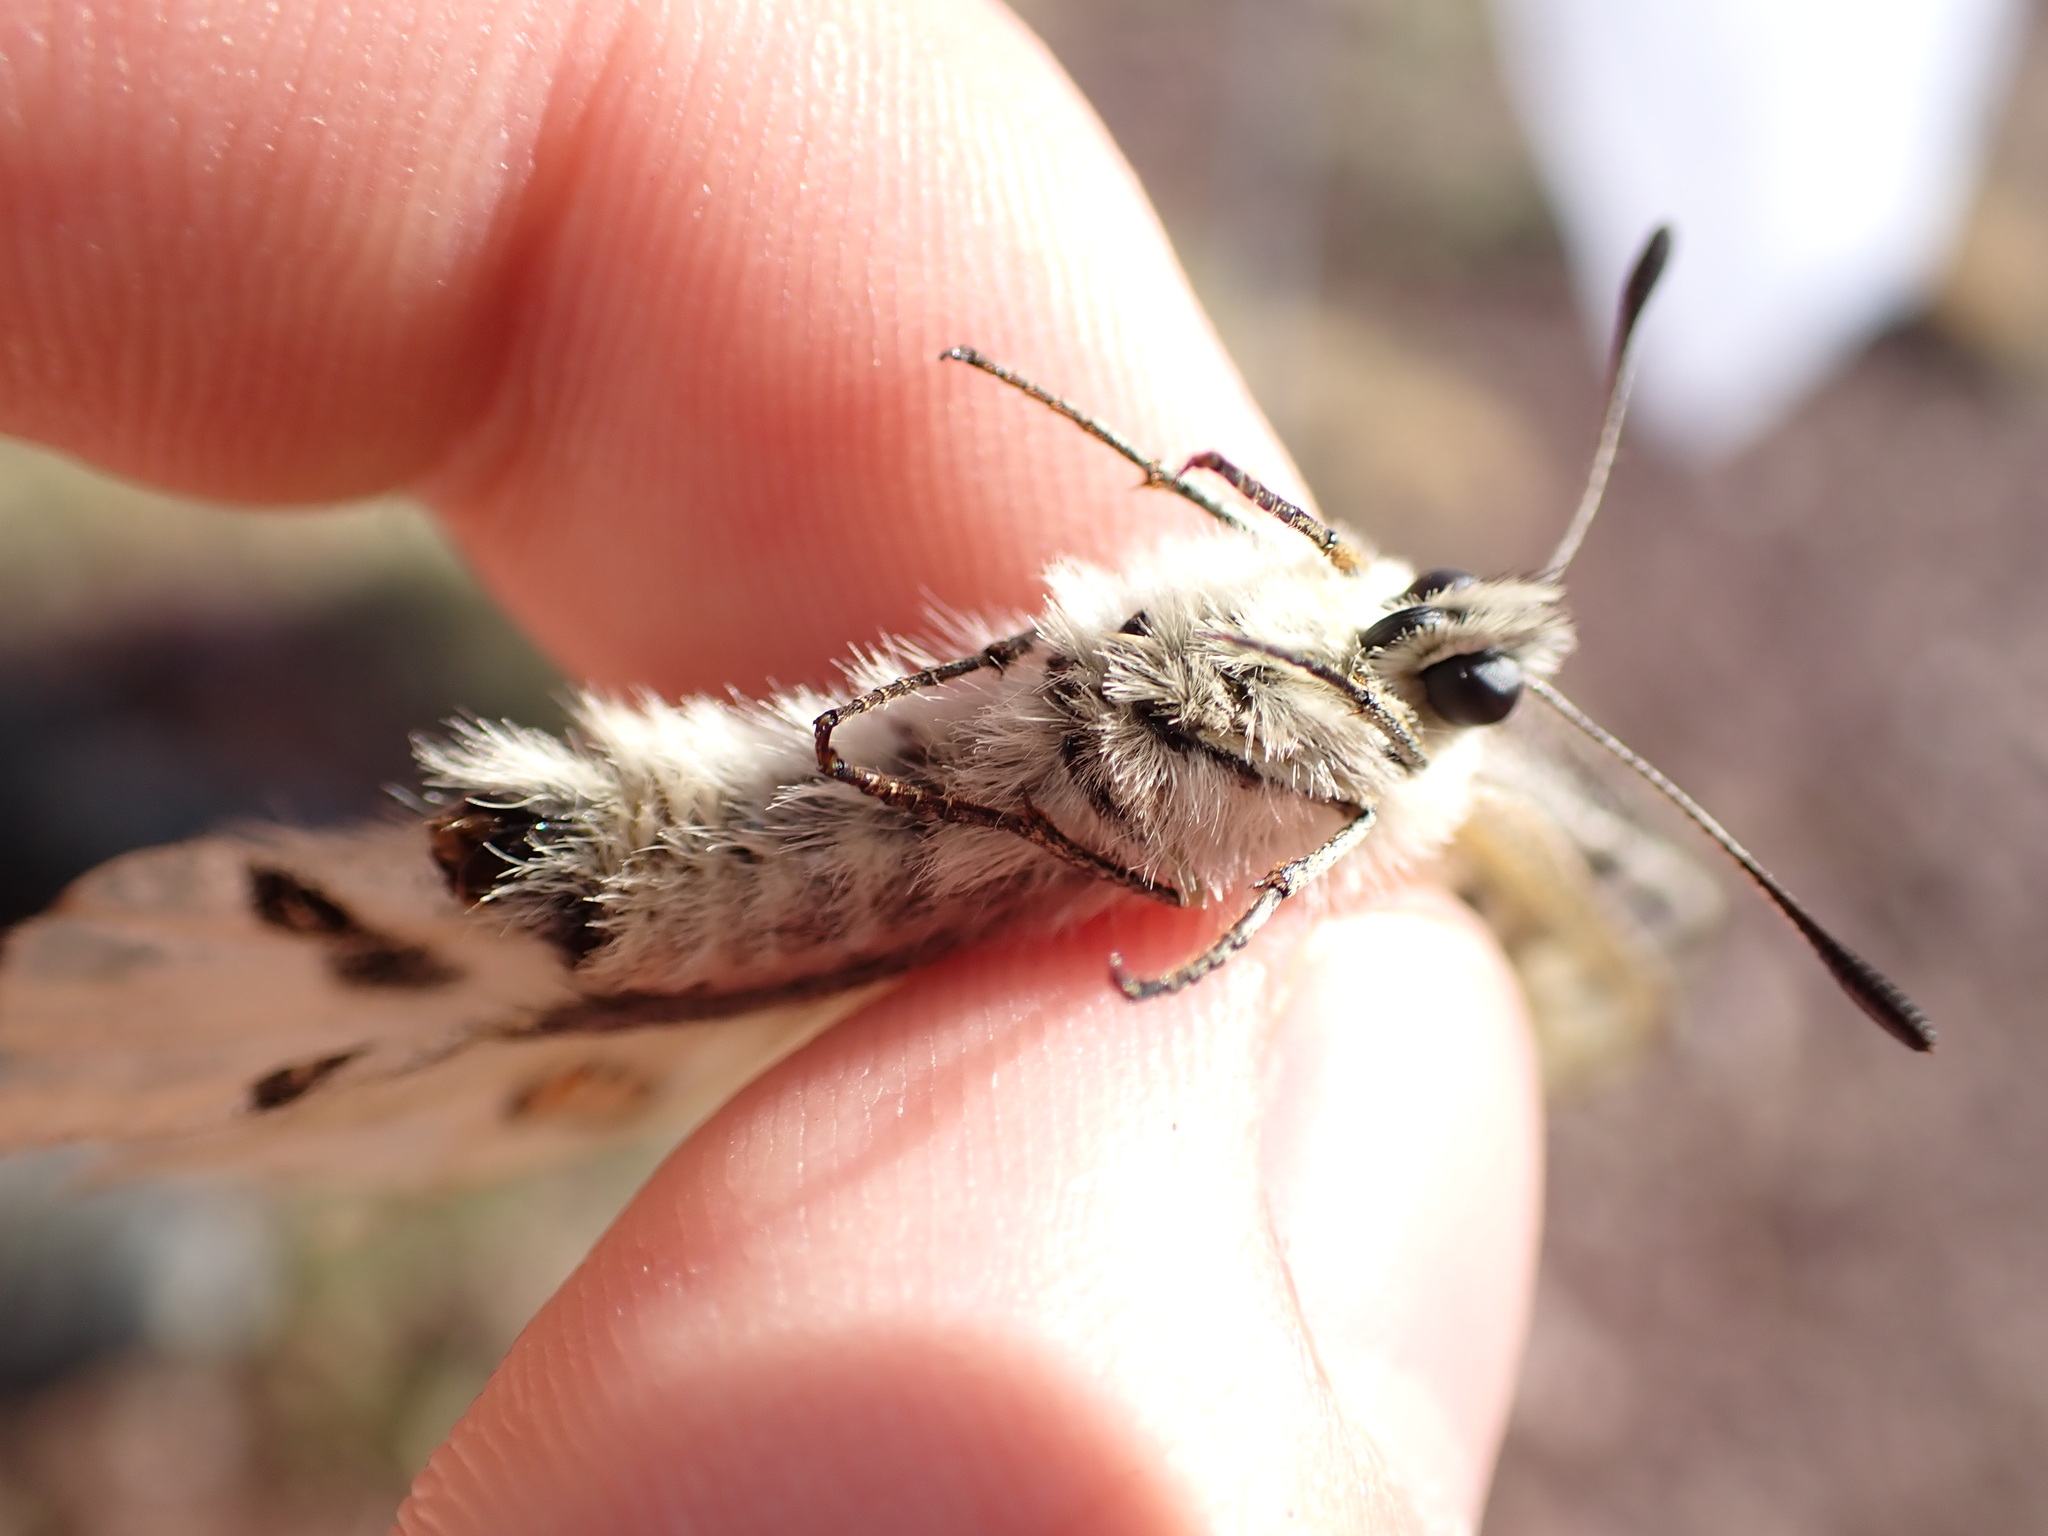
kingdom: Animalia
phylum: Arthropoda
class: Insecta
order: Lepidoptera
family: Papilionidae
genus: Parnassius
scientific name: Parnassius apollo
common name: Apollo
